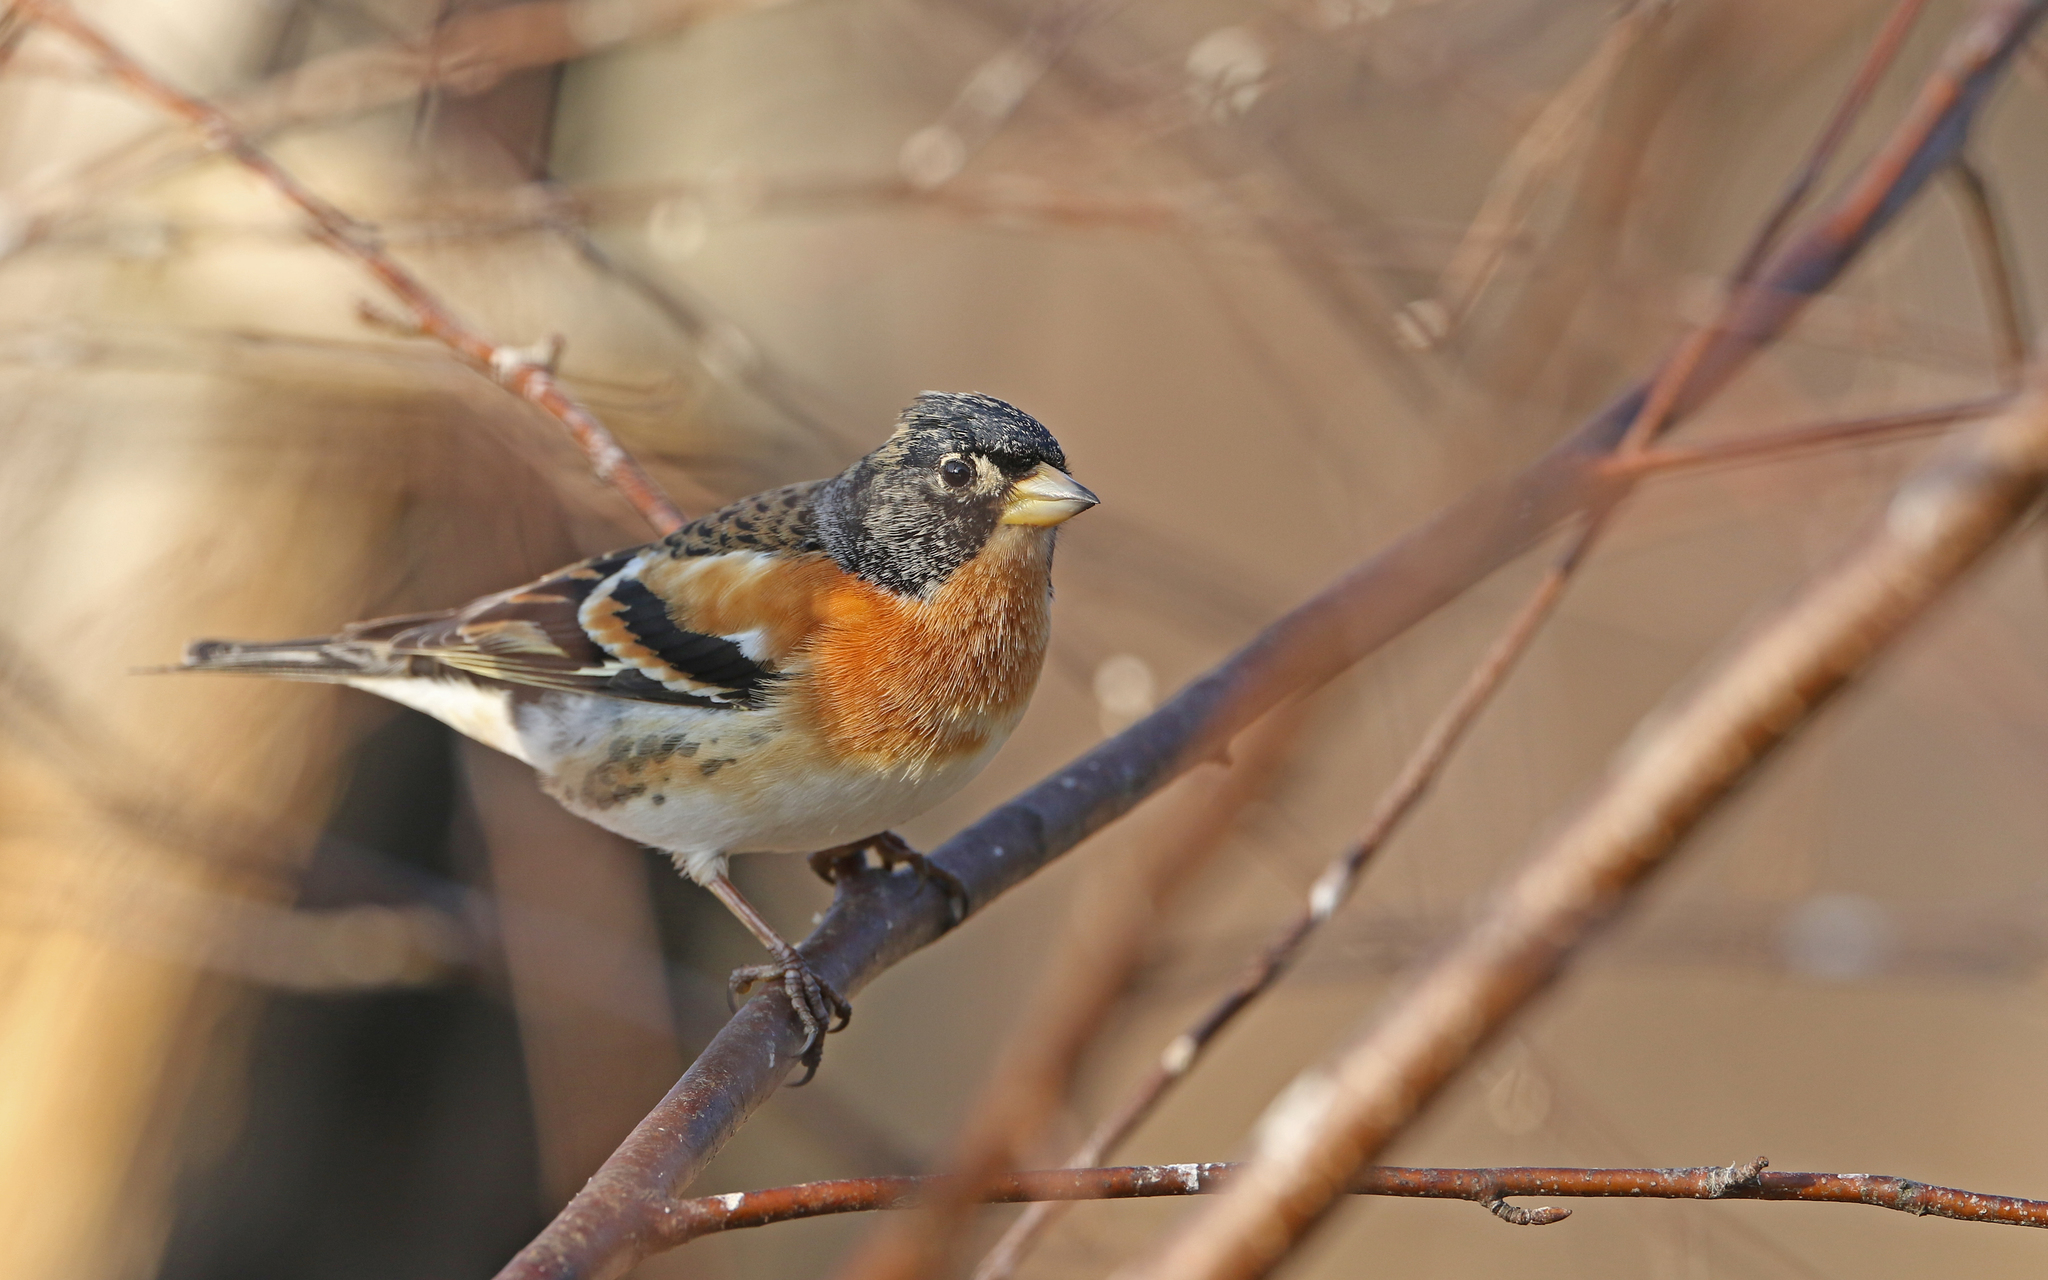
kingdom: Animalia
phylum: Chordata
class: Aves
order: Passeriformes
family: Fringillidae
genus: Fringilla
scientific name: Fringilla montifringilla
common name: Brambling
